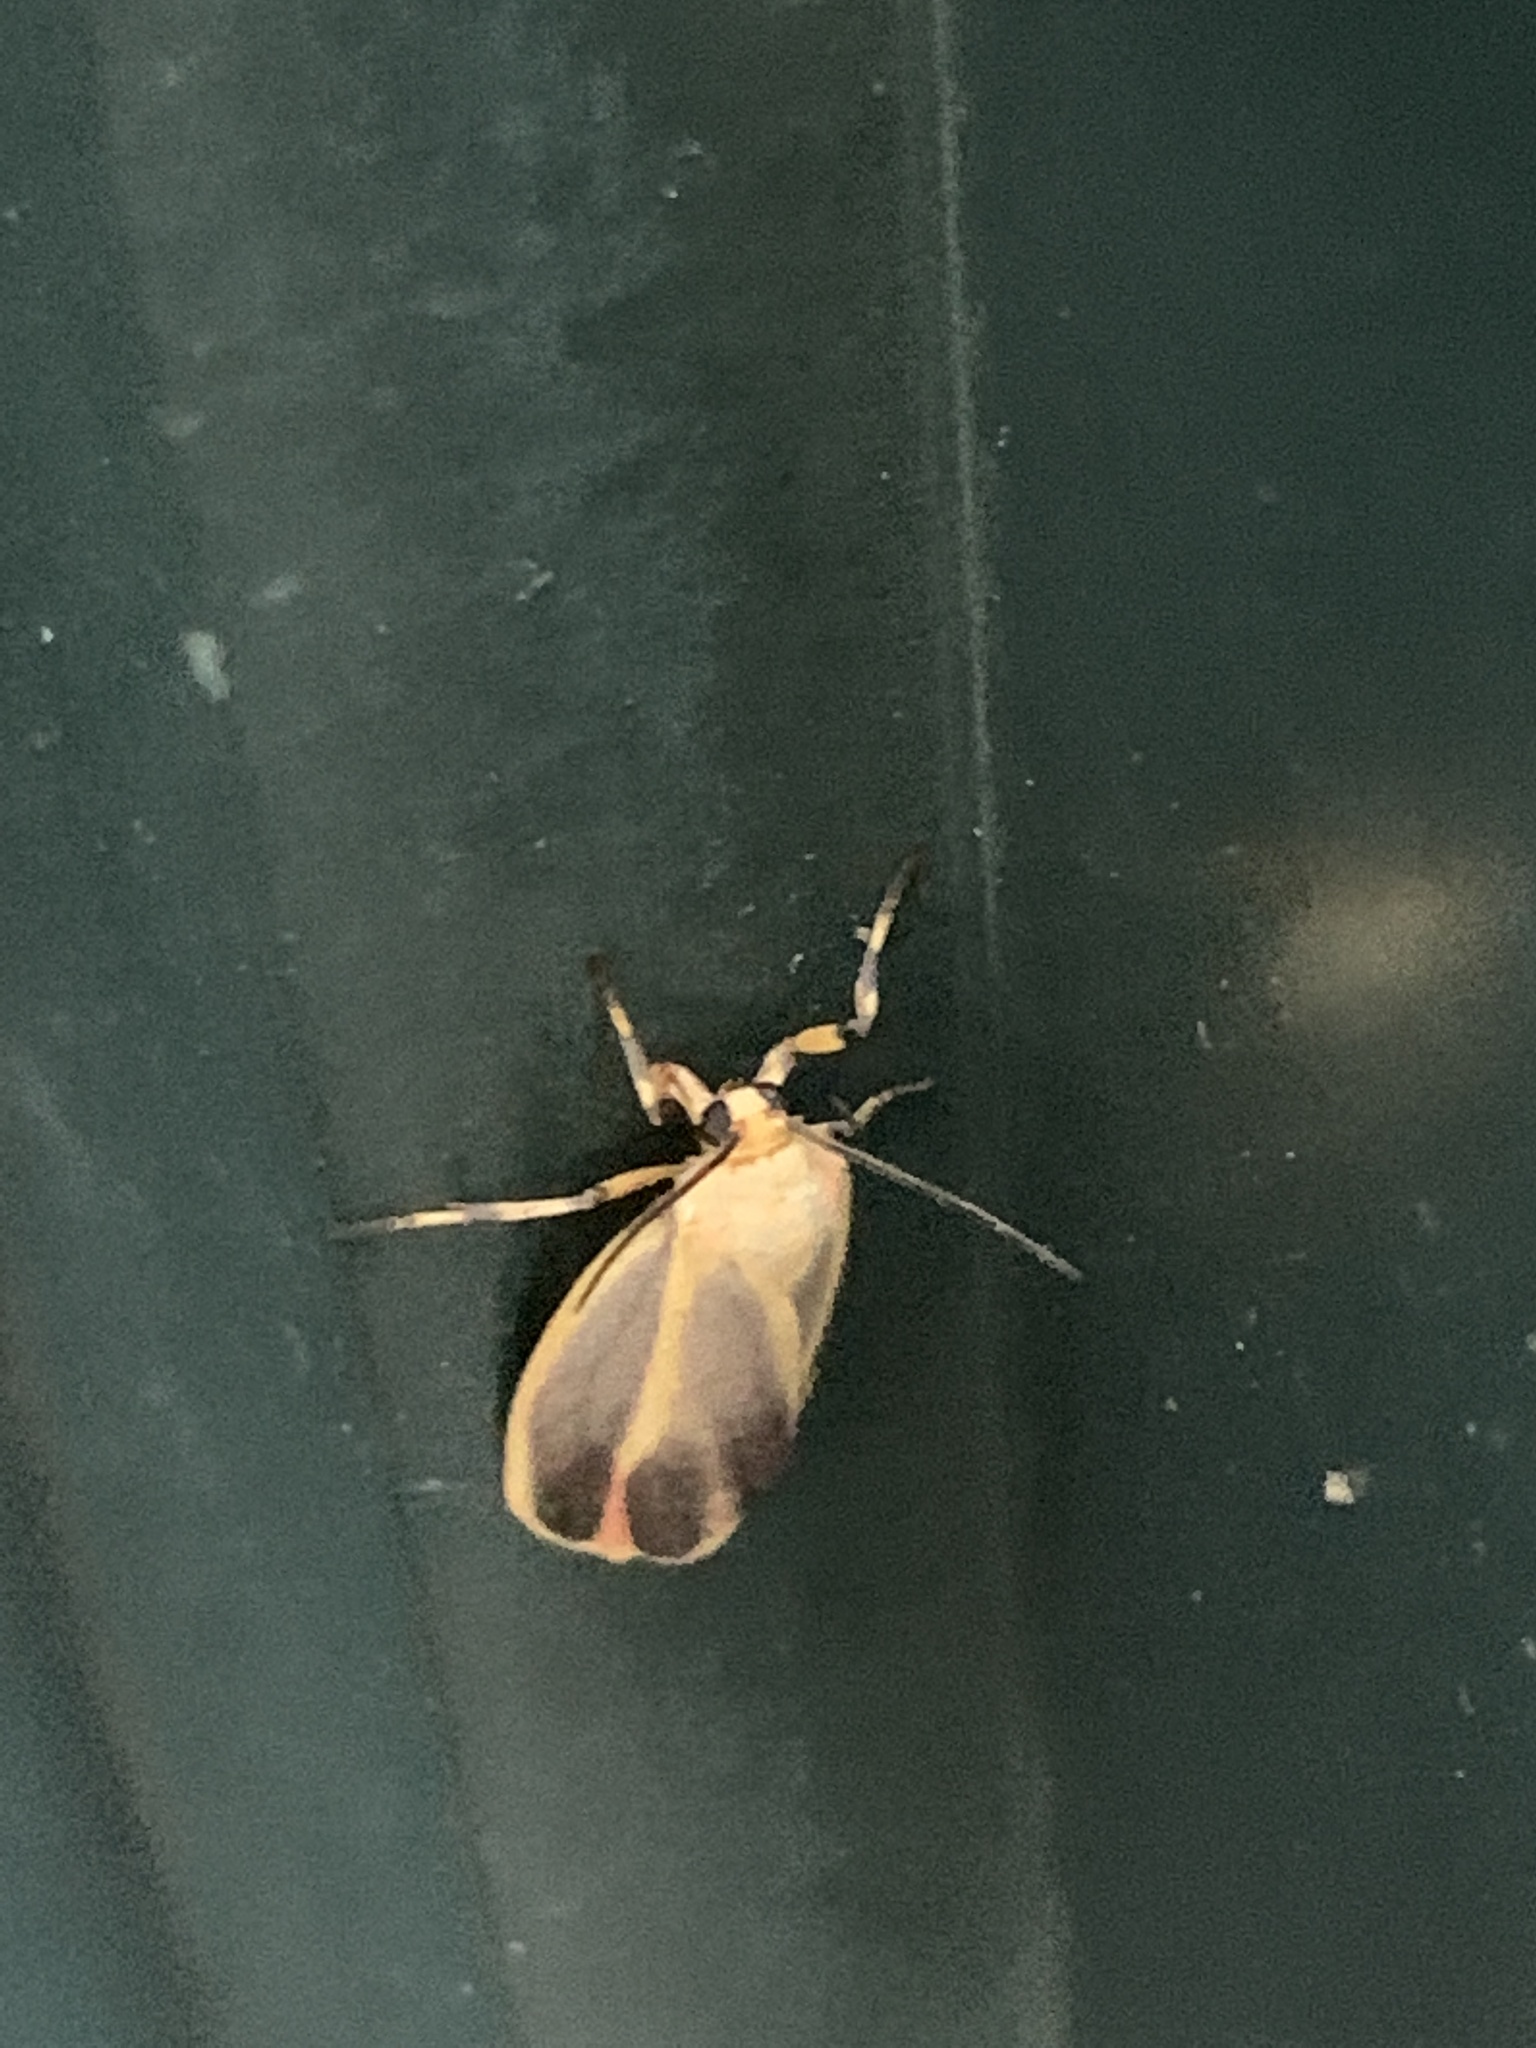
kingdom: Animalia
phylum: Arthropoda
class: Insecta
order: Lepidoptera
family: Erebidae
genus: Hypoprepia
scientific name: Hypoprepia fucosa
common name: Painted lichen moth
